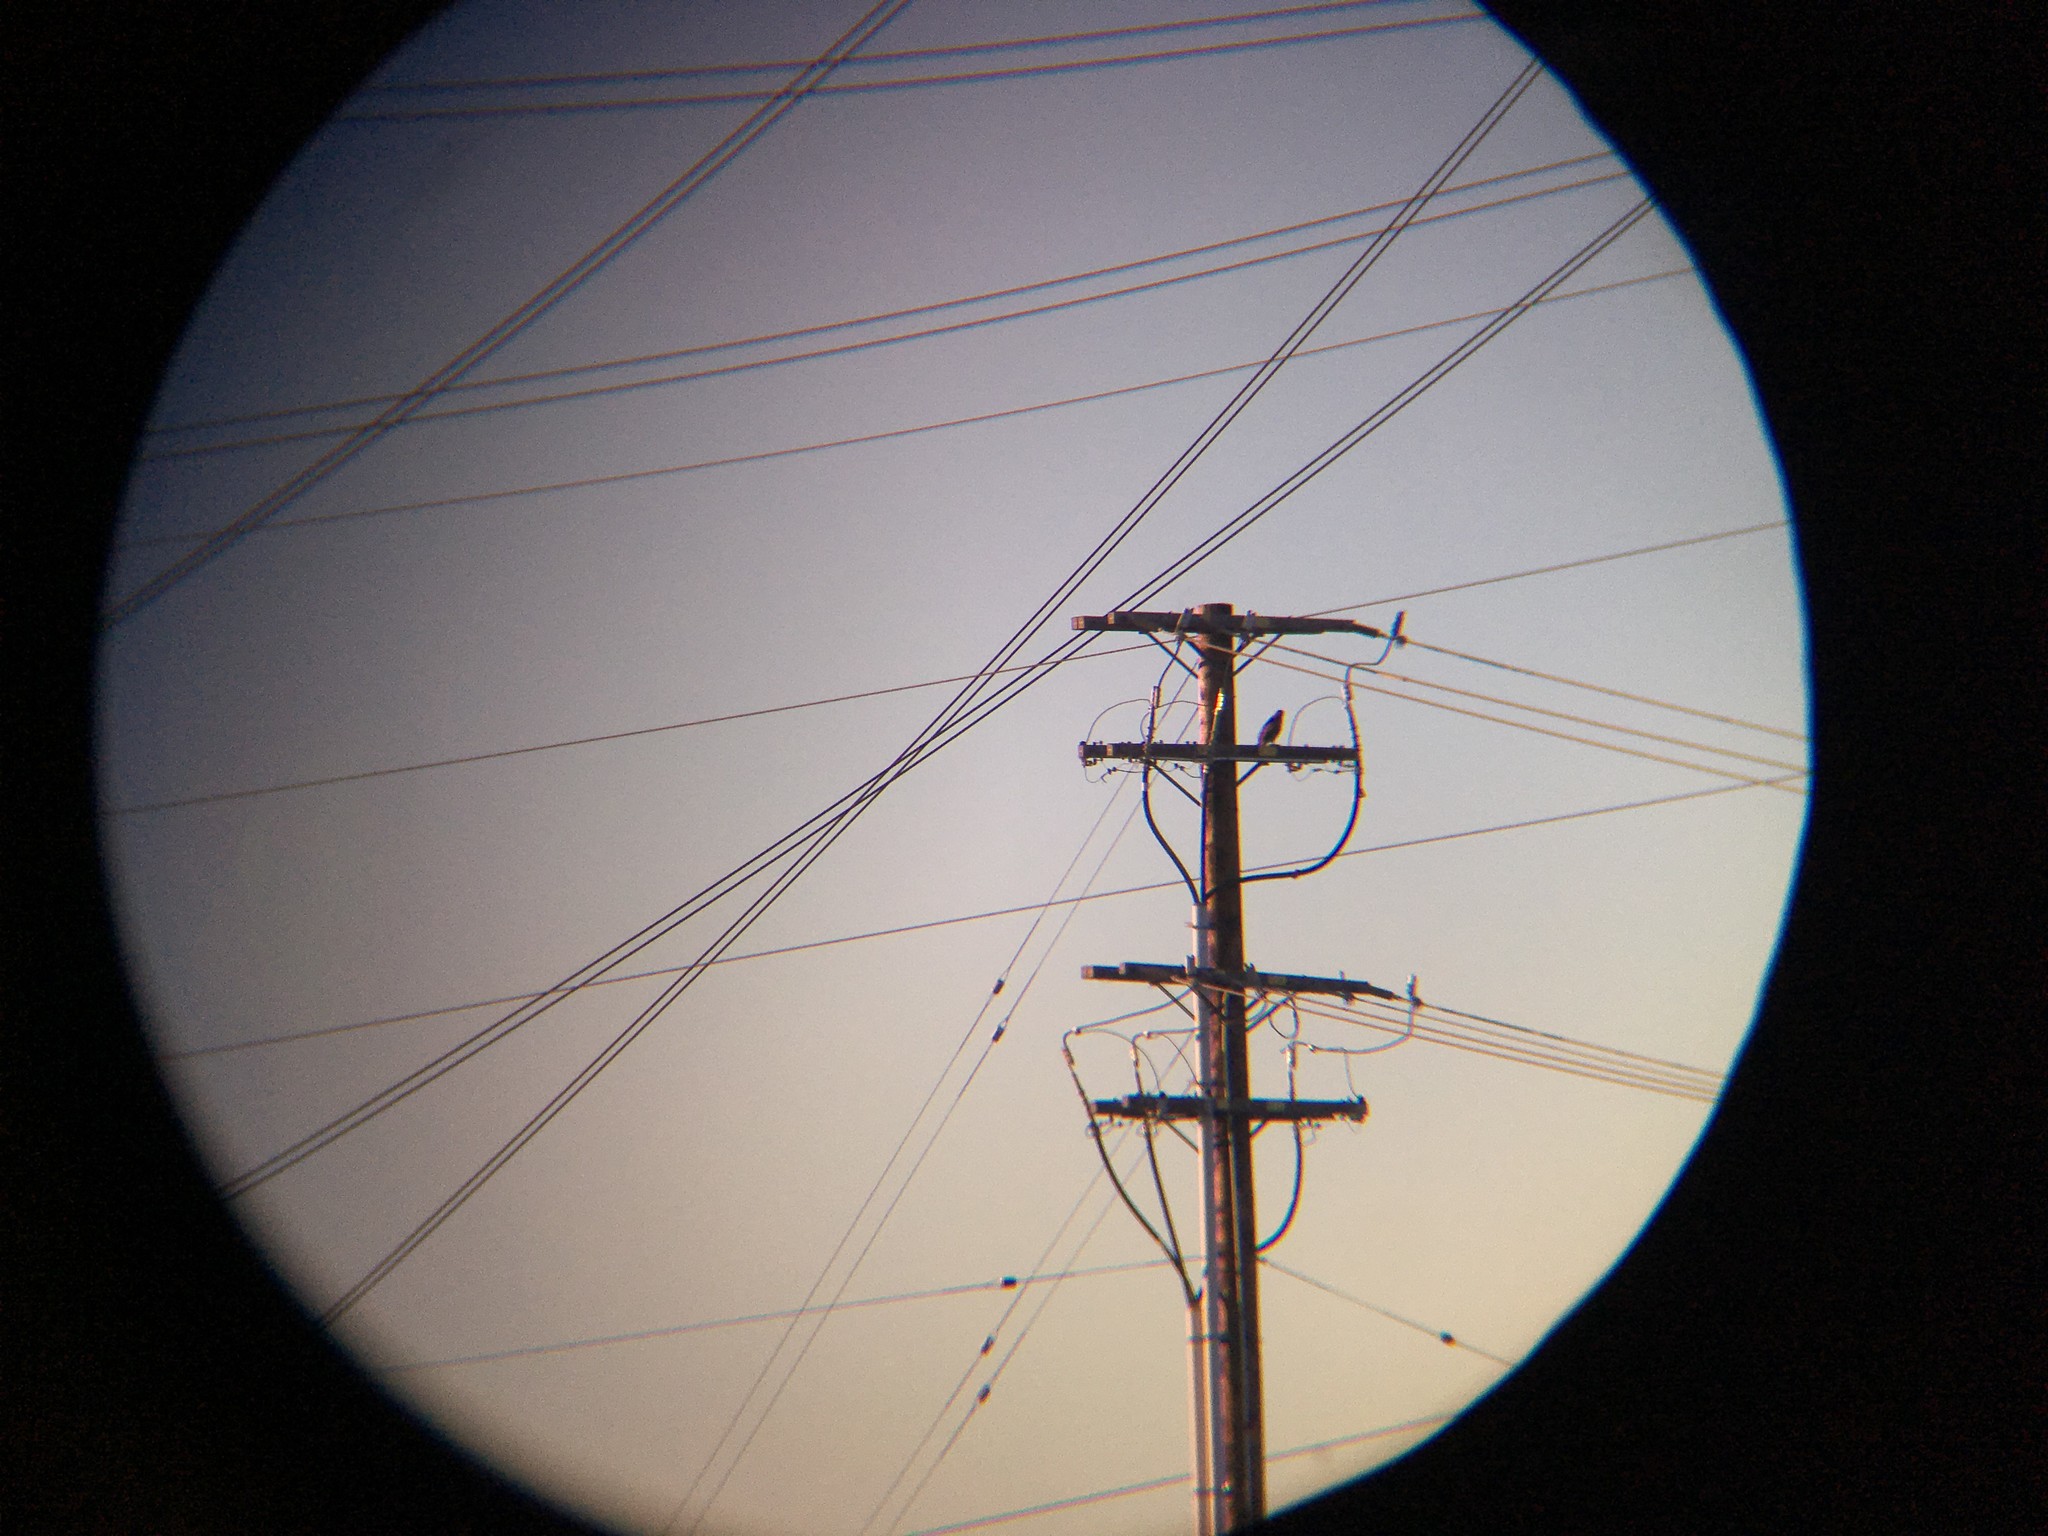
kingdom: Animalia
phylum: Chordata
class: Aves
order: Accipitriformes
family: Accipitridae
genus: Buteo
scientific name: Buteo
